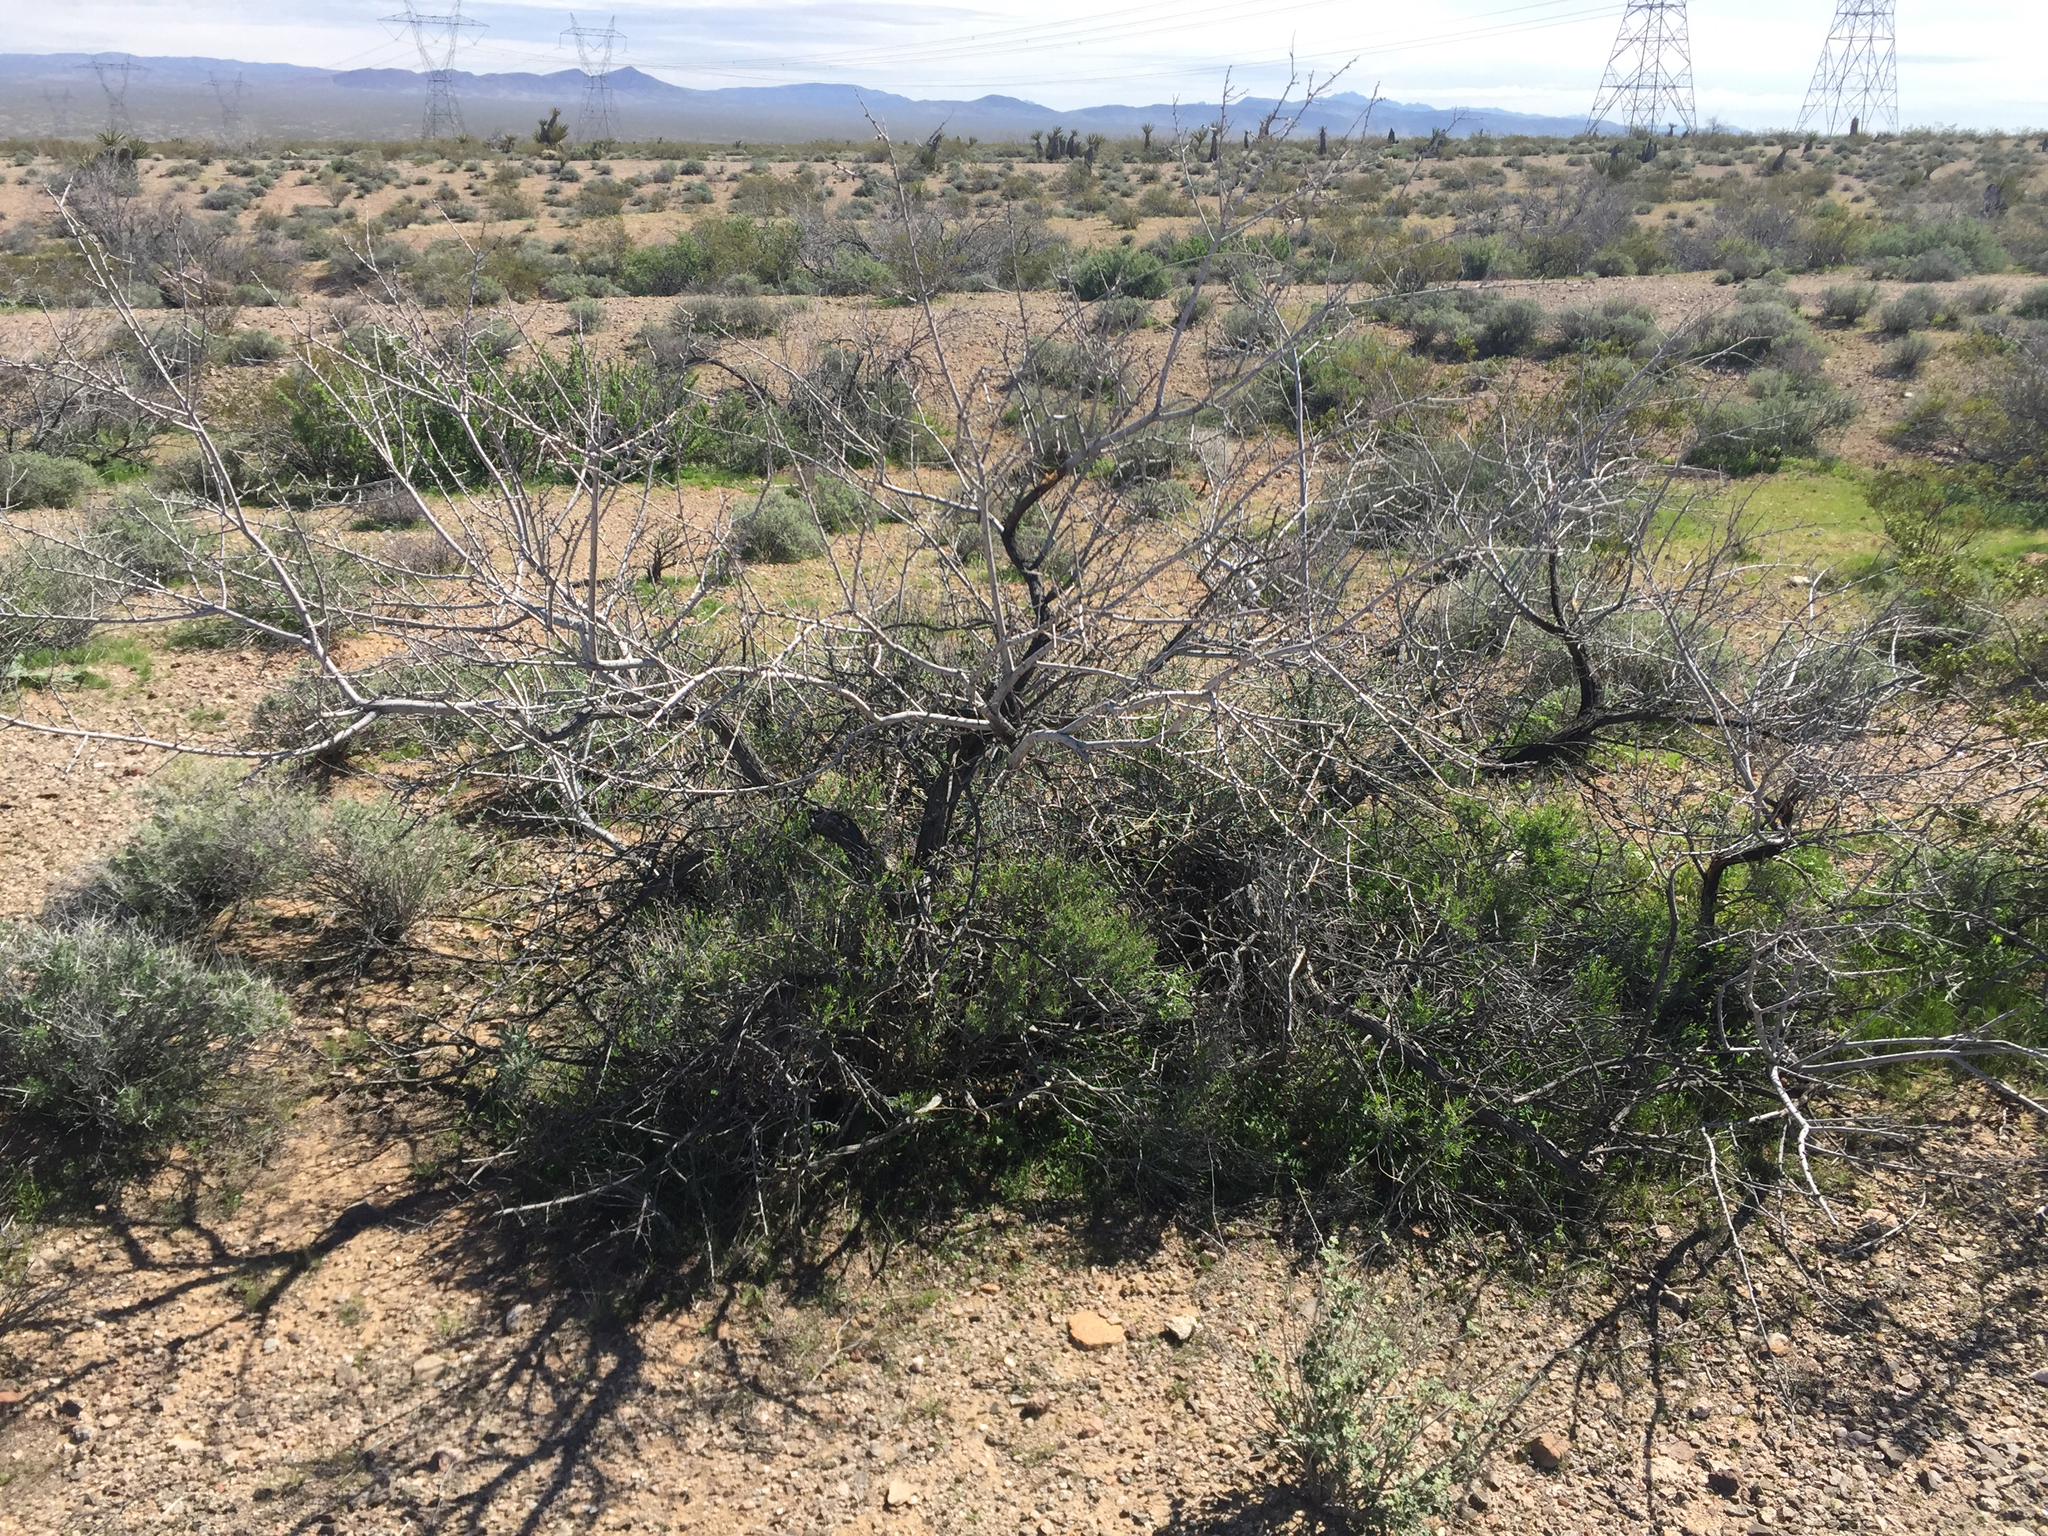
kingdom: Plantae
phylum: Tracheophyta
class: Magnoliopsida
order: Fabales
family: Fabaceae
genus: Senegalia
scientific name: Senegalia greggii
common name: Texas-mimosa
